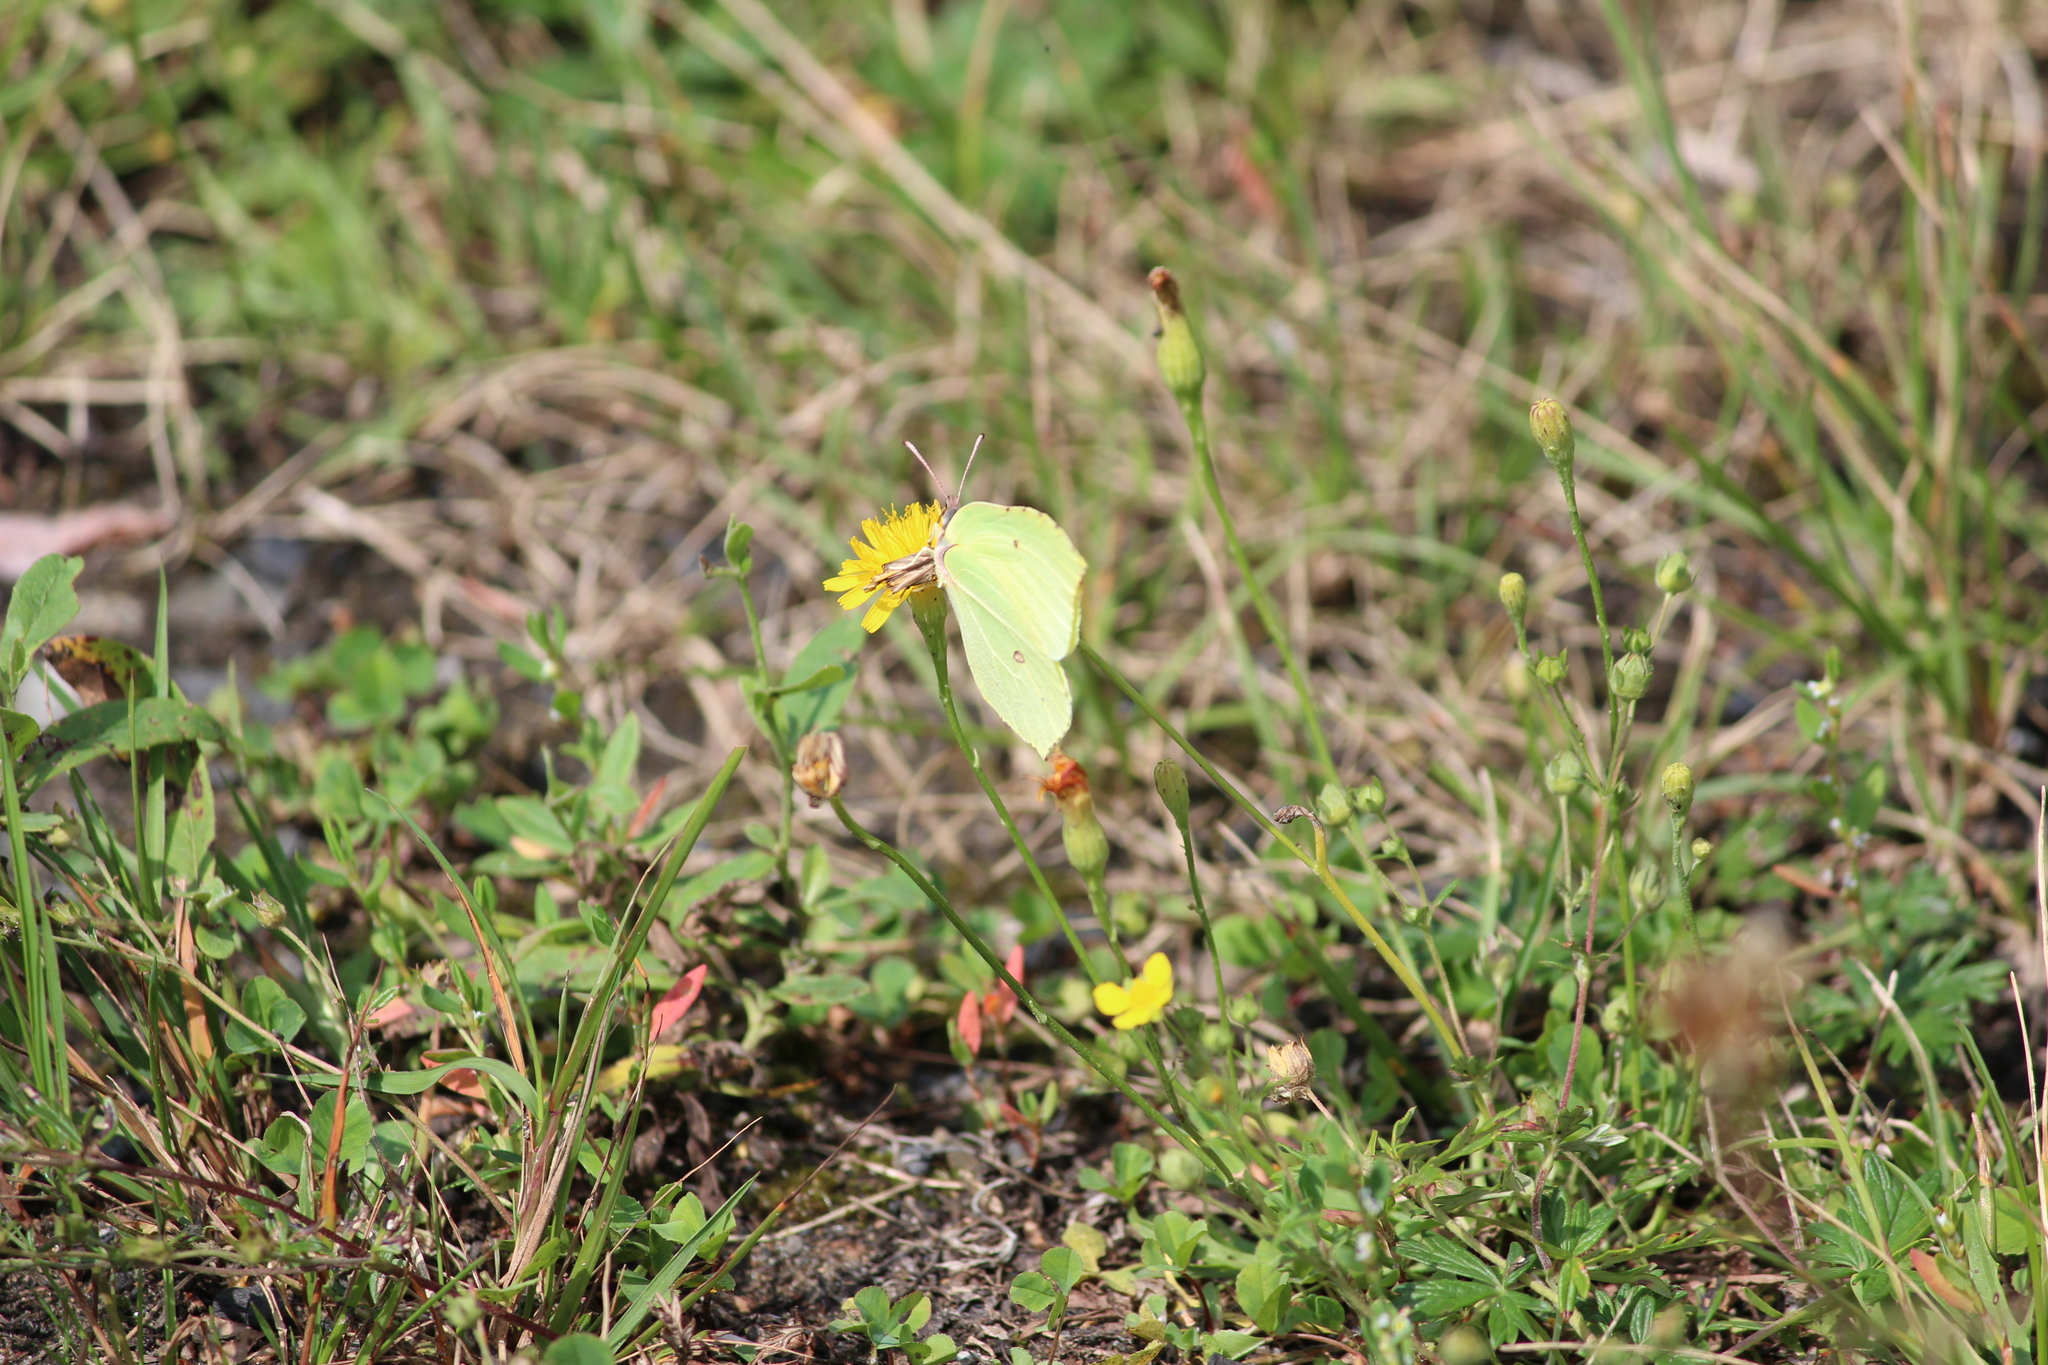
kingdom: Animalia
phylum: Arthropoda
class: Insecta
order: Lepidoptera
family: Pieridae
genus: Gonepteryx
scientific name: Gonepteryx rhamni
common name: Brimstone
